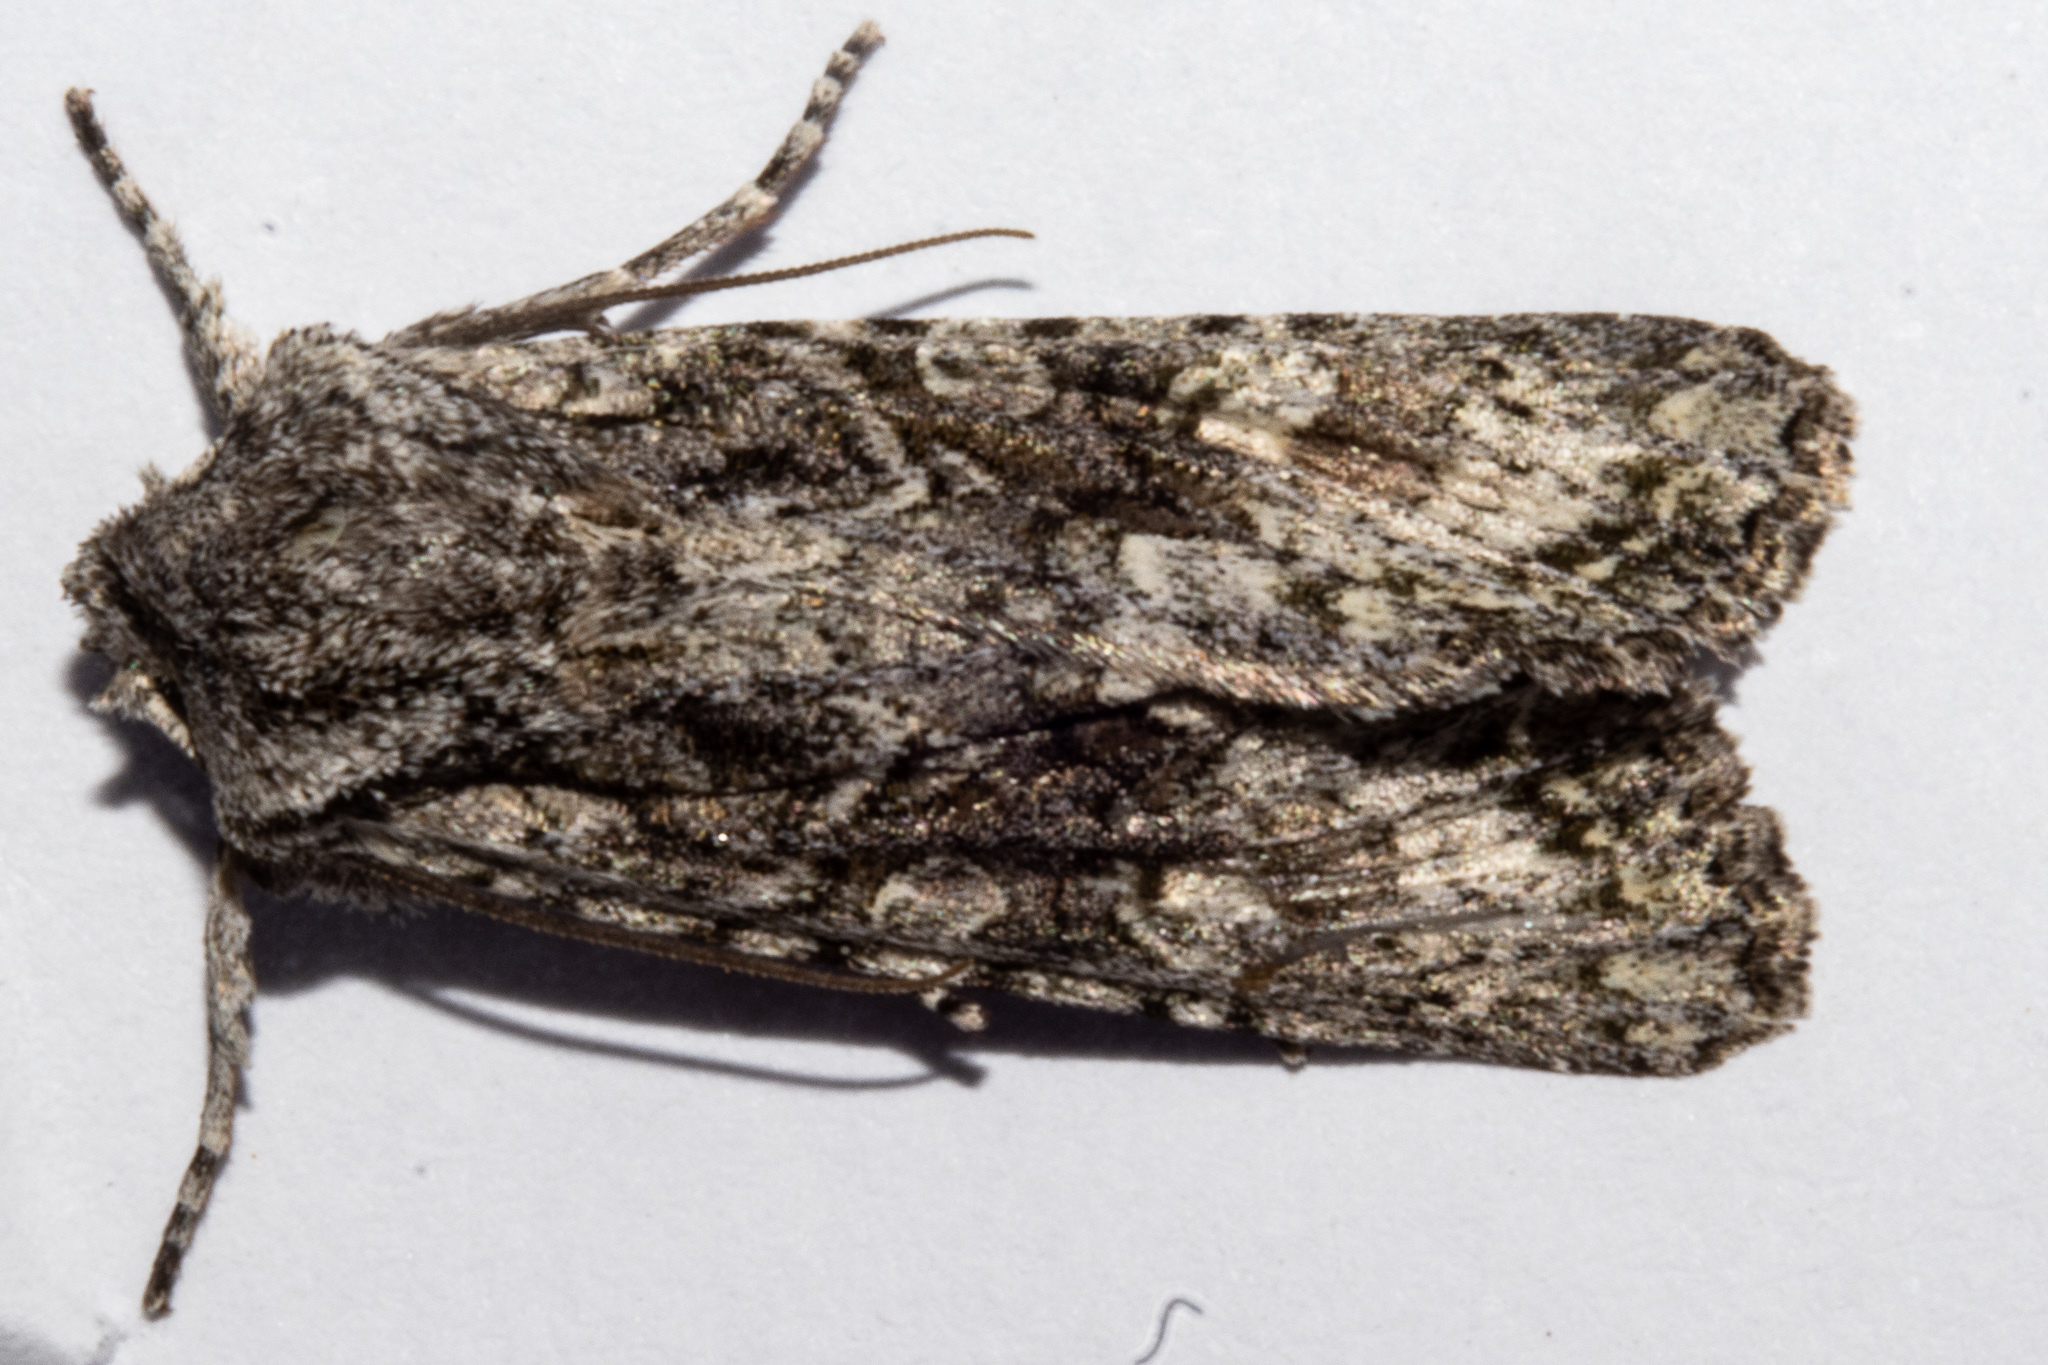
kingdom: Animalia
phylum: Arthropoda
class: Insecta
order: Lepidoptera
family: Noctuidae
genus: Ichneutica
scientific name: Ichneutica mutans
